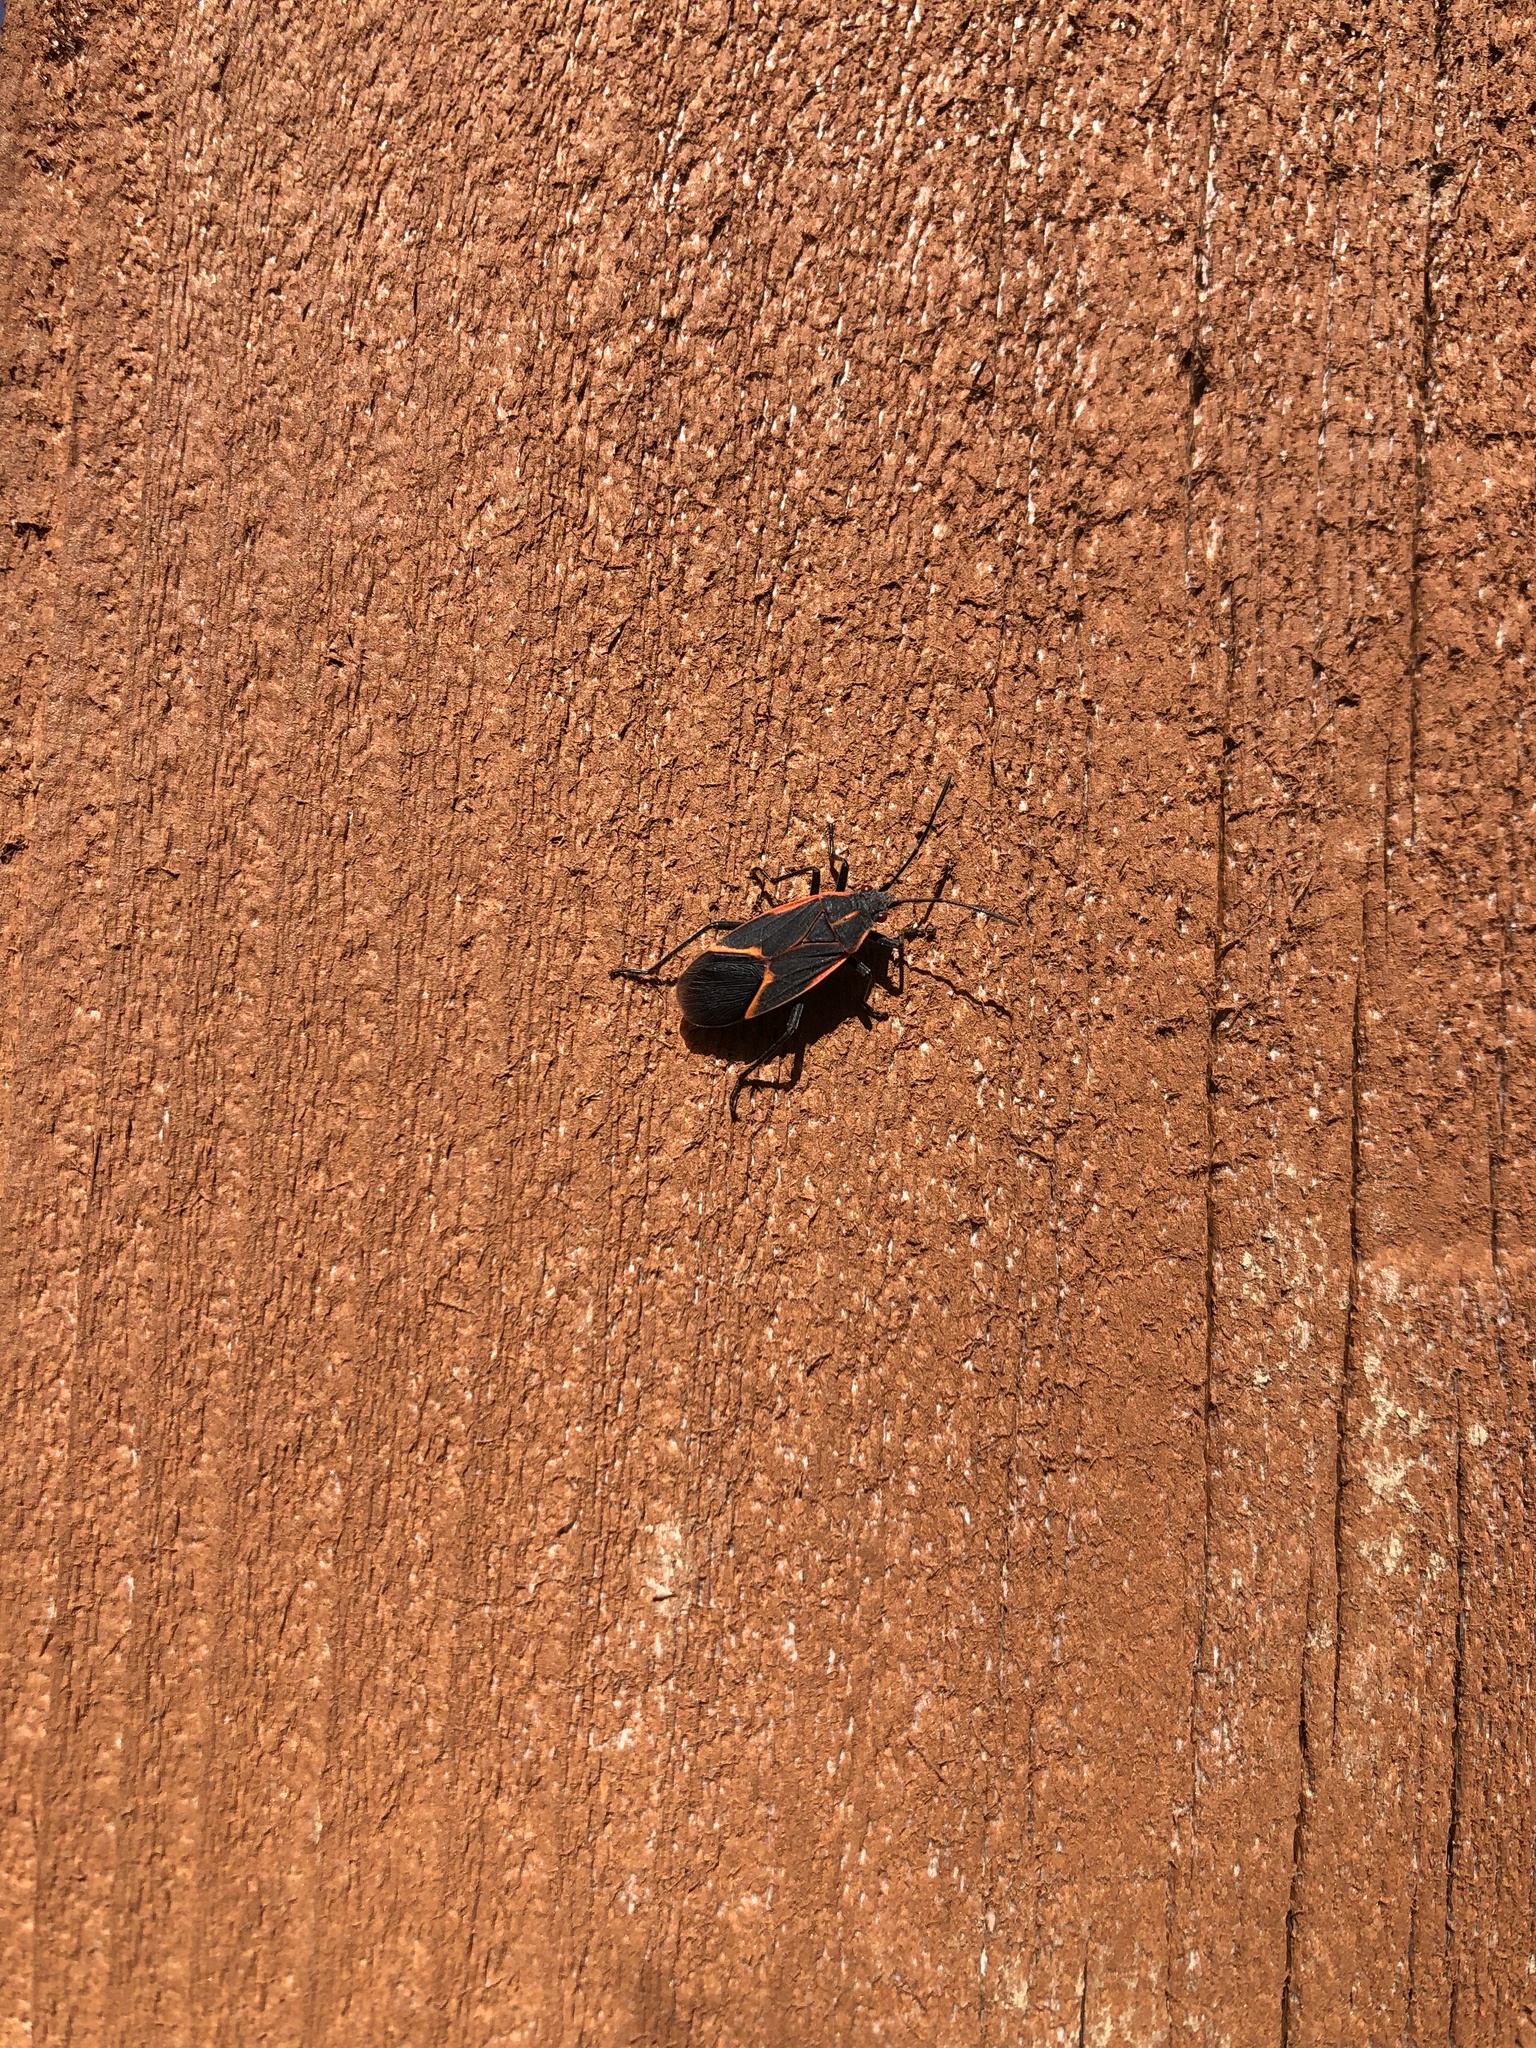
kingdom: Animalia
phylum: Arthropoda
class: Insecta
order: Hemiptera
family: Rhopalidae
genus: Boisea
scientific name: Boisea trivittata
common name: Boxelder bug
